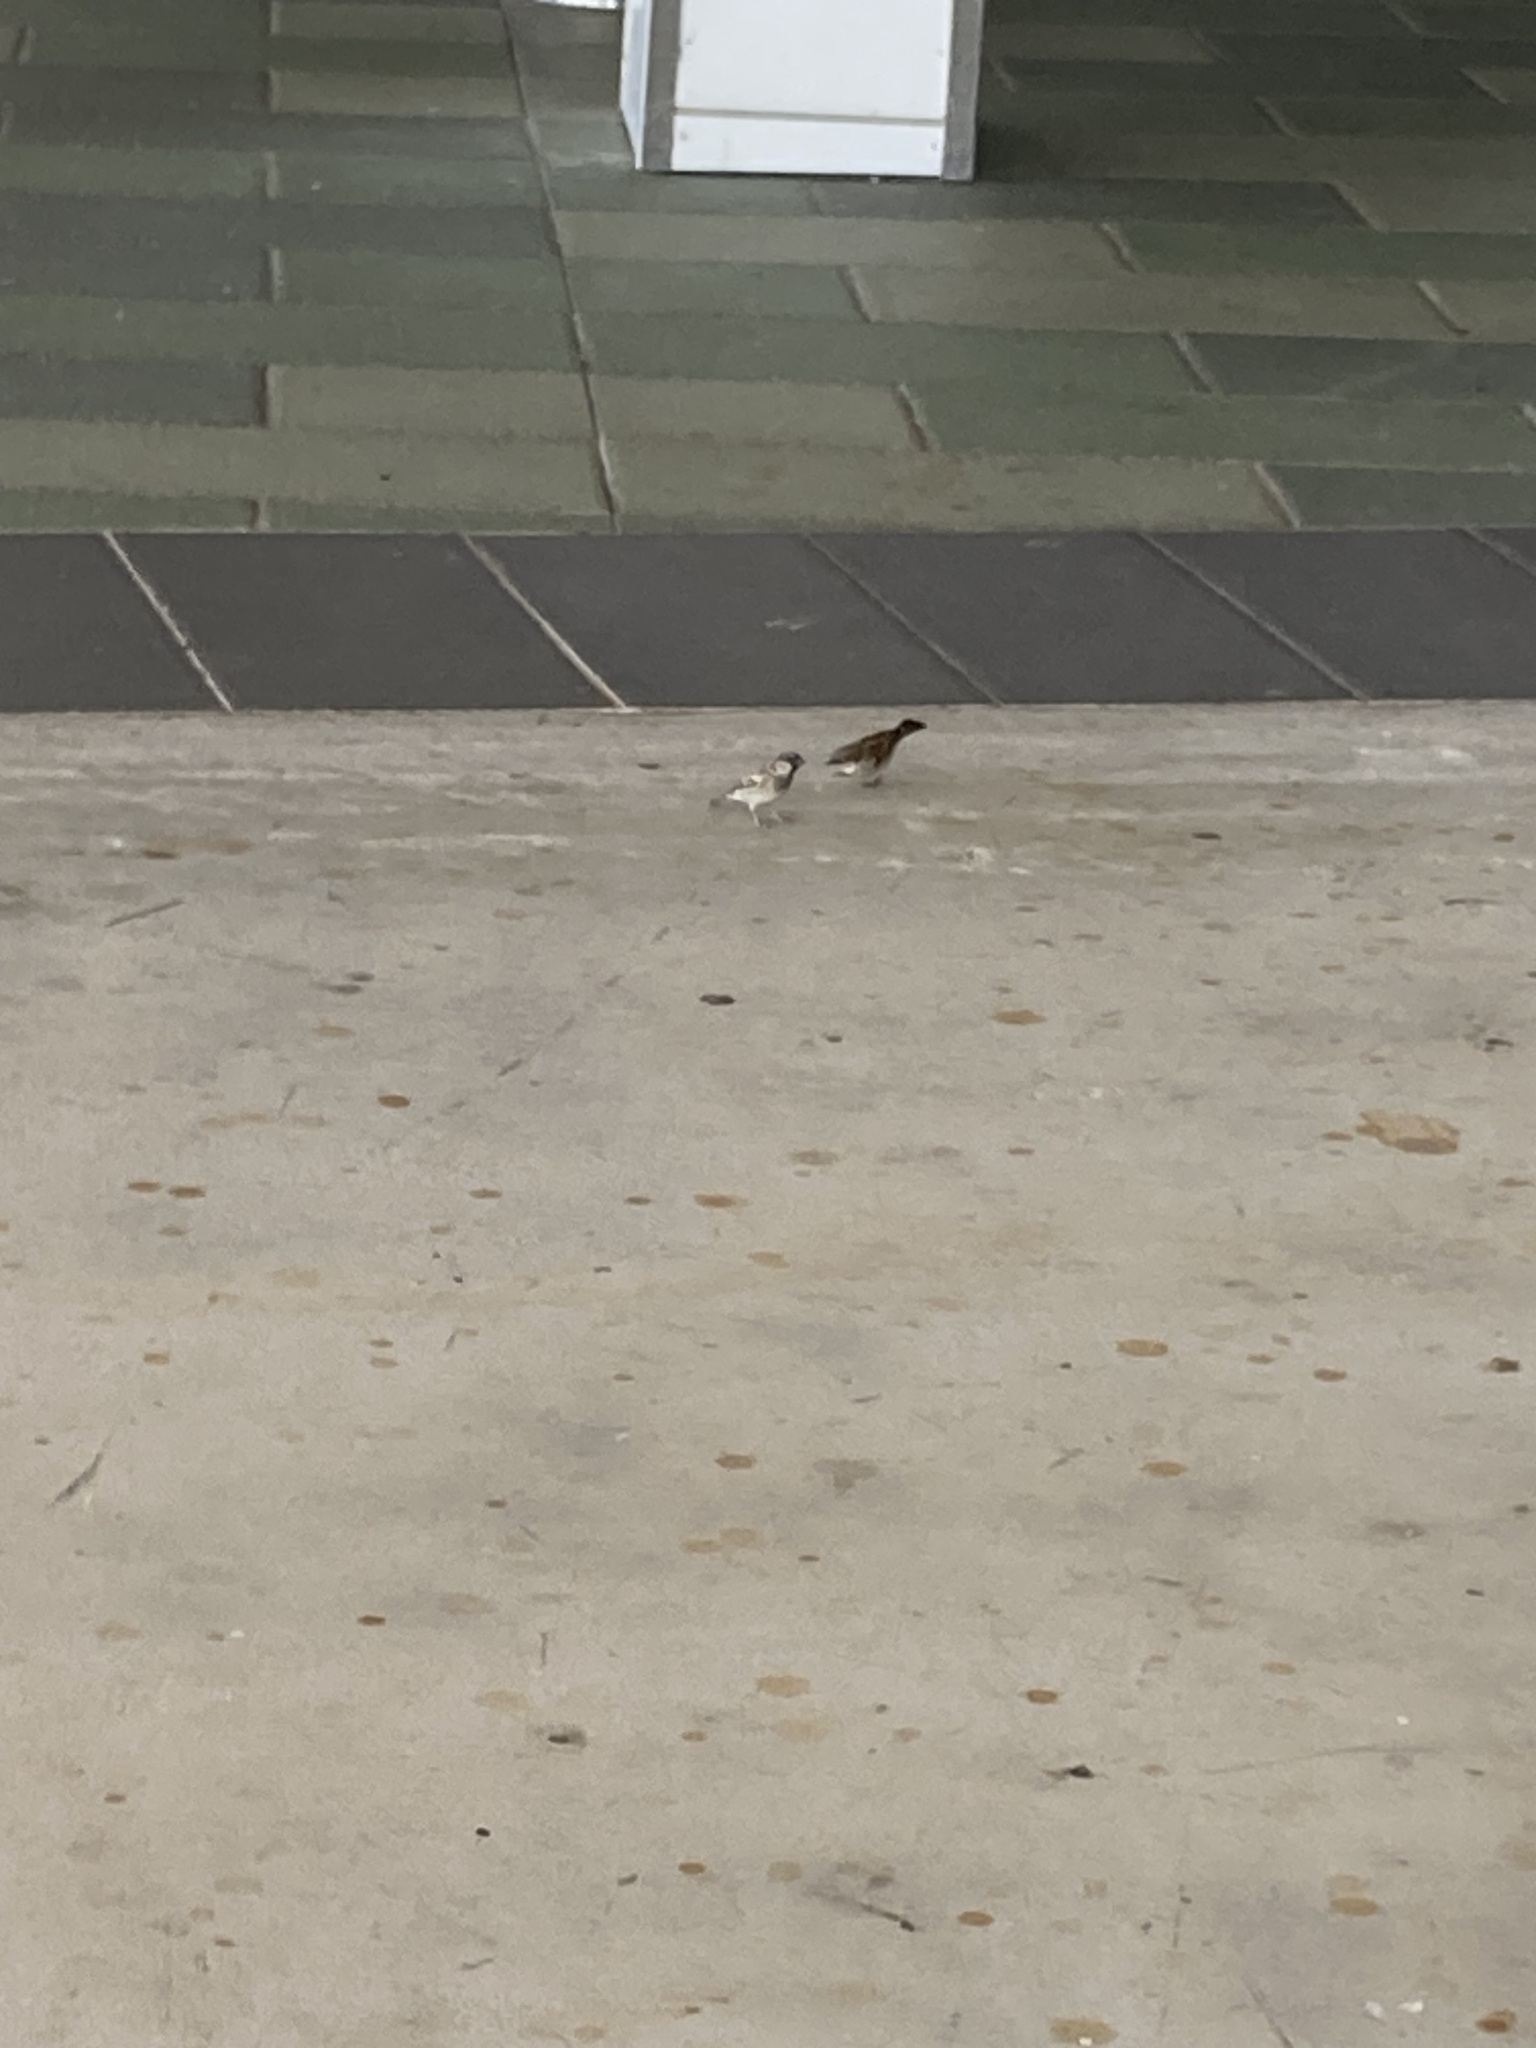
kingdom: Animalia
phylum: Chordata
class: Aves
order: Passeriformes
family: Passeridae
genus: Passer
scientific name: Passer domesticus
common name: House sparrow
